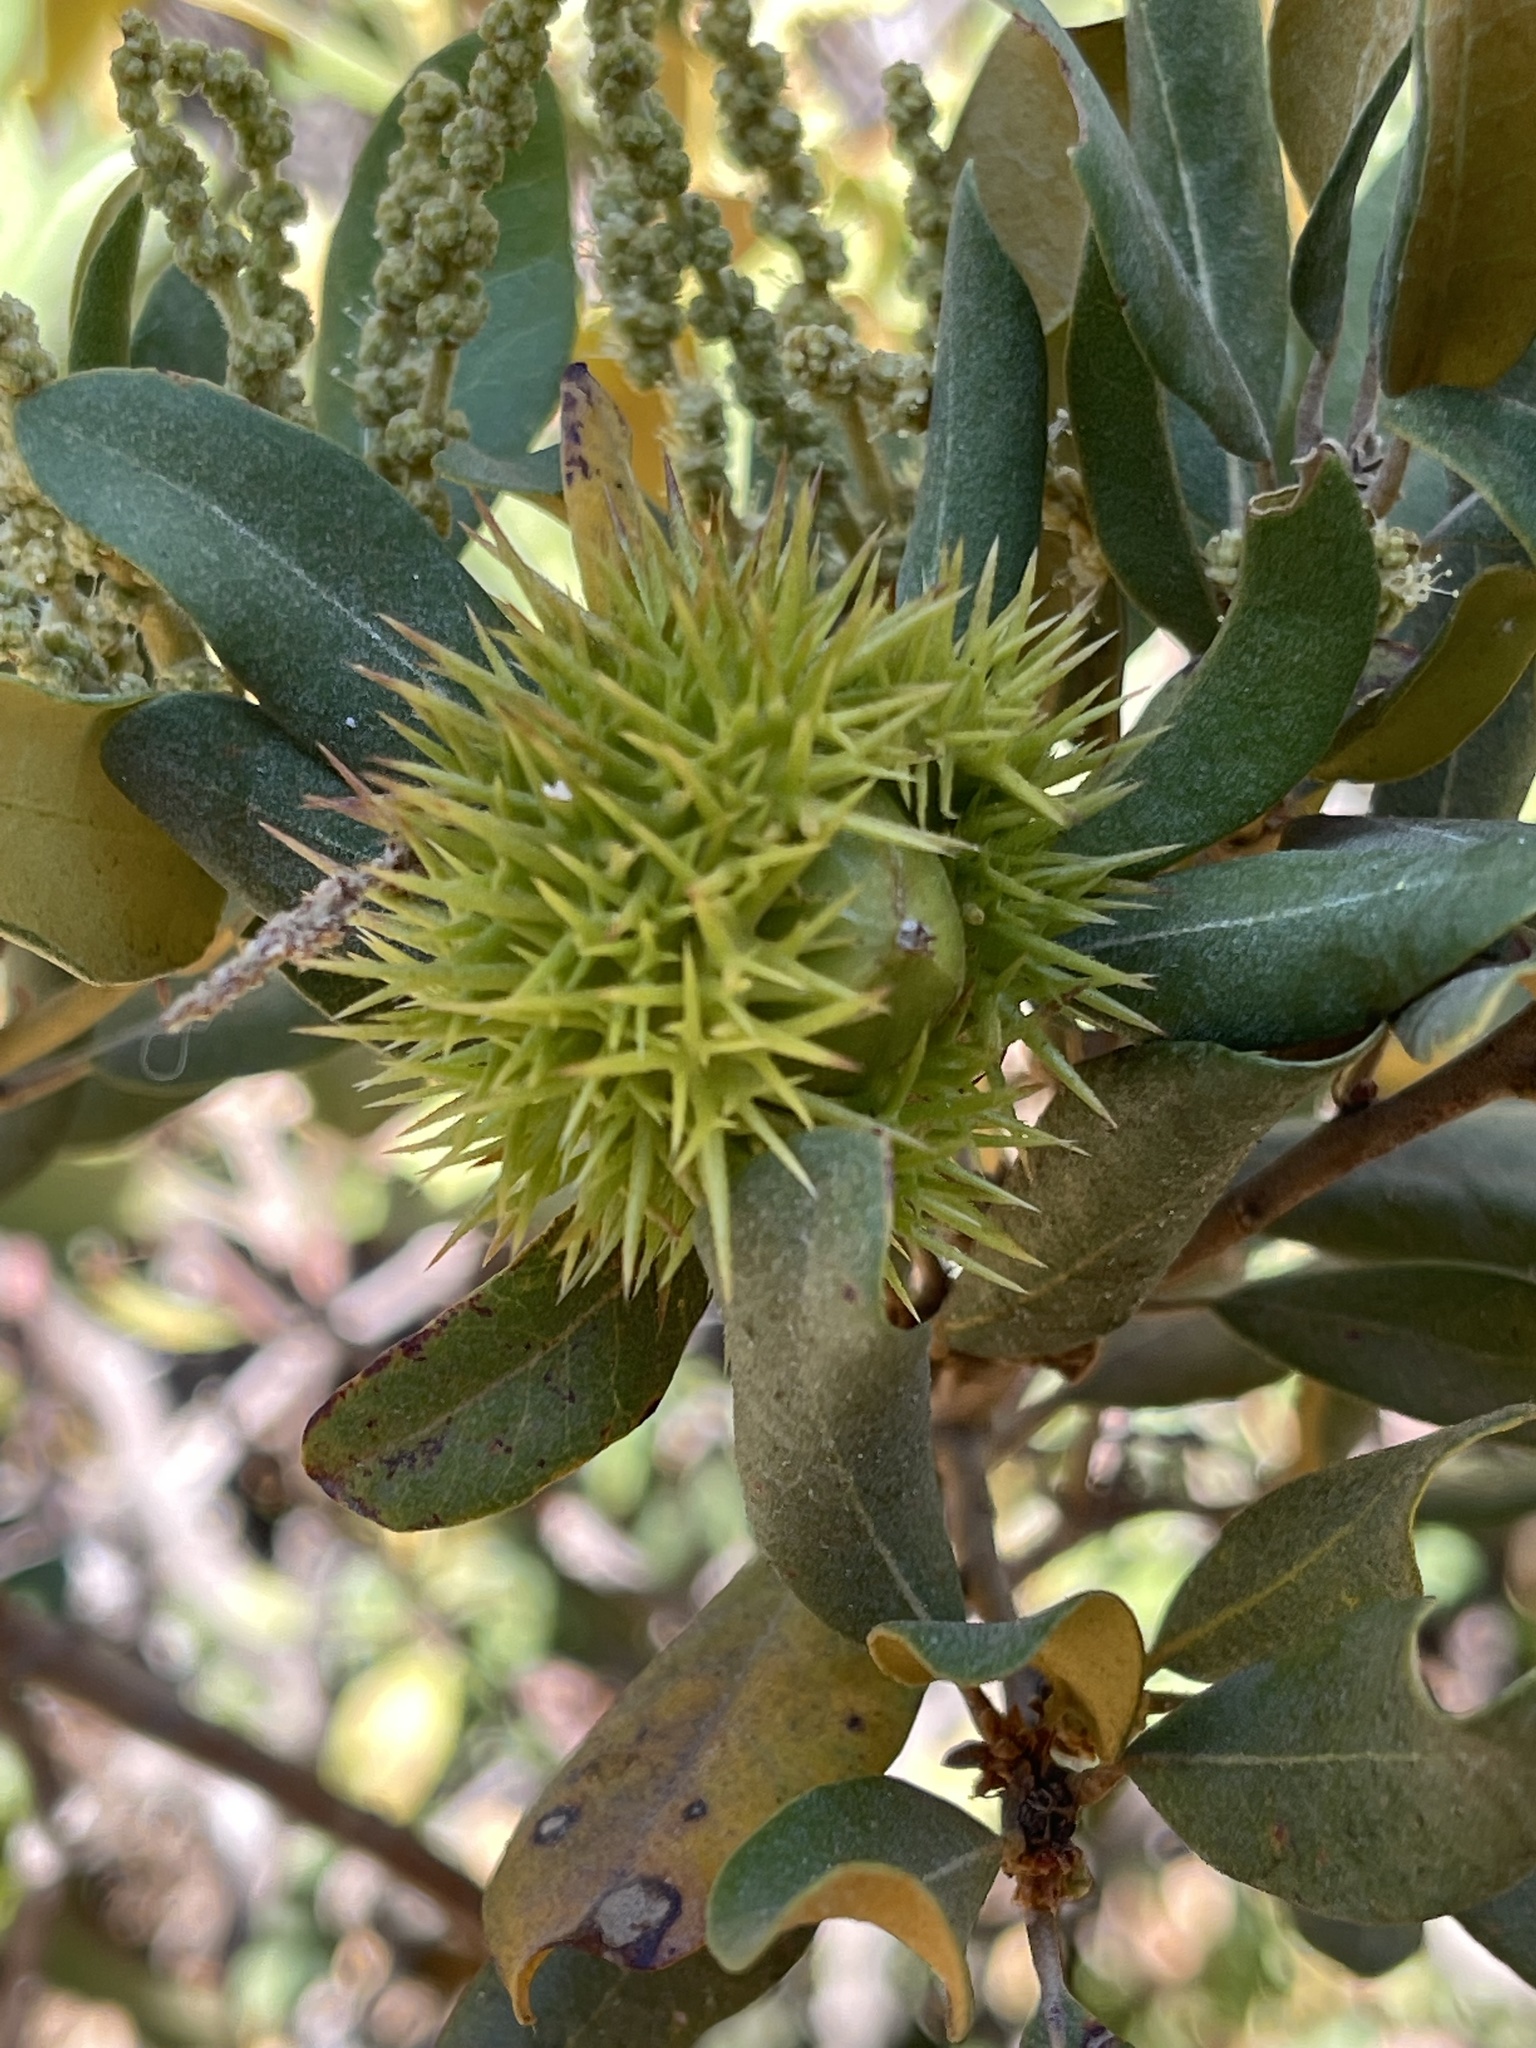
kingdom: Plantae
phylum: Tracheophyta
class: Magnoliopsida
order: Fagales
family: Fagaceae
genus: Chrysolepis
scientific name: Chrysolepis sempervirens
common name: Bush chinquapin
